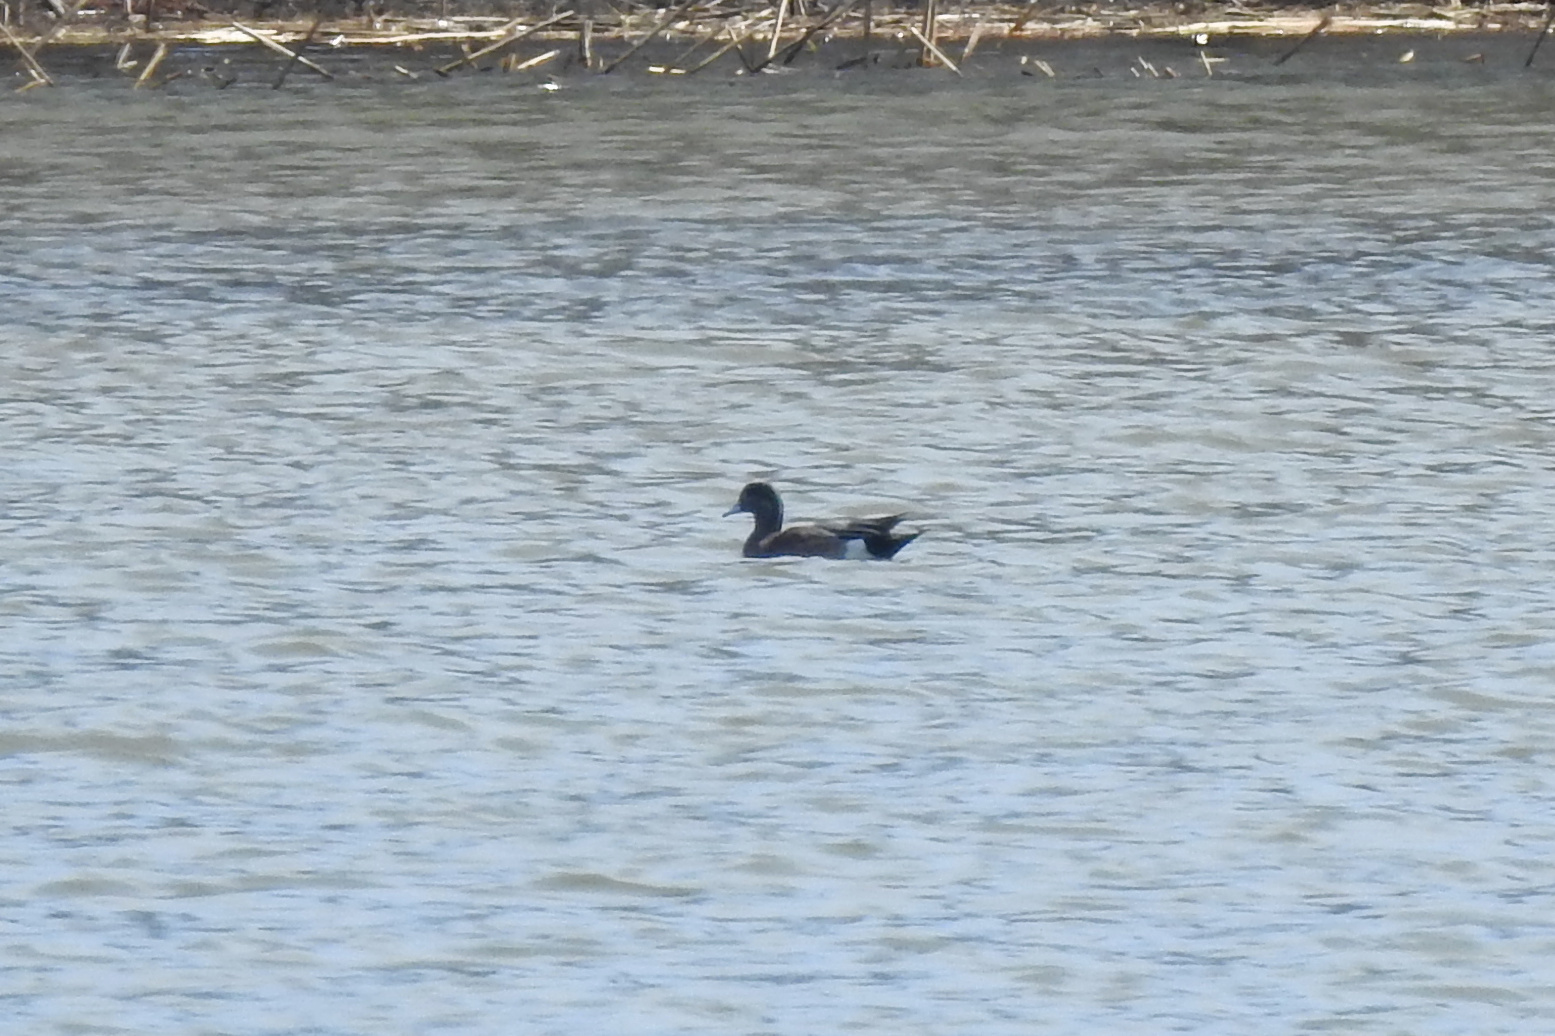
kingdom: Animalia
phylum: Chordata
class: Aves
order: Anseriformes
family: Anatidae
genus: Mareca
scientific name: Mareca americana
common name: American wigeon
